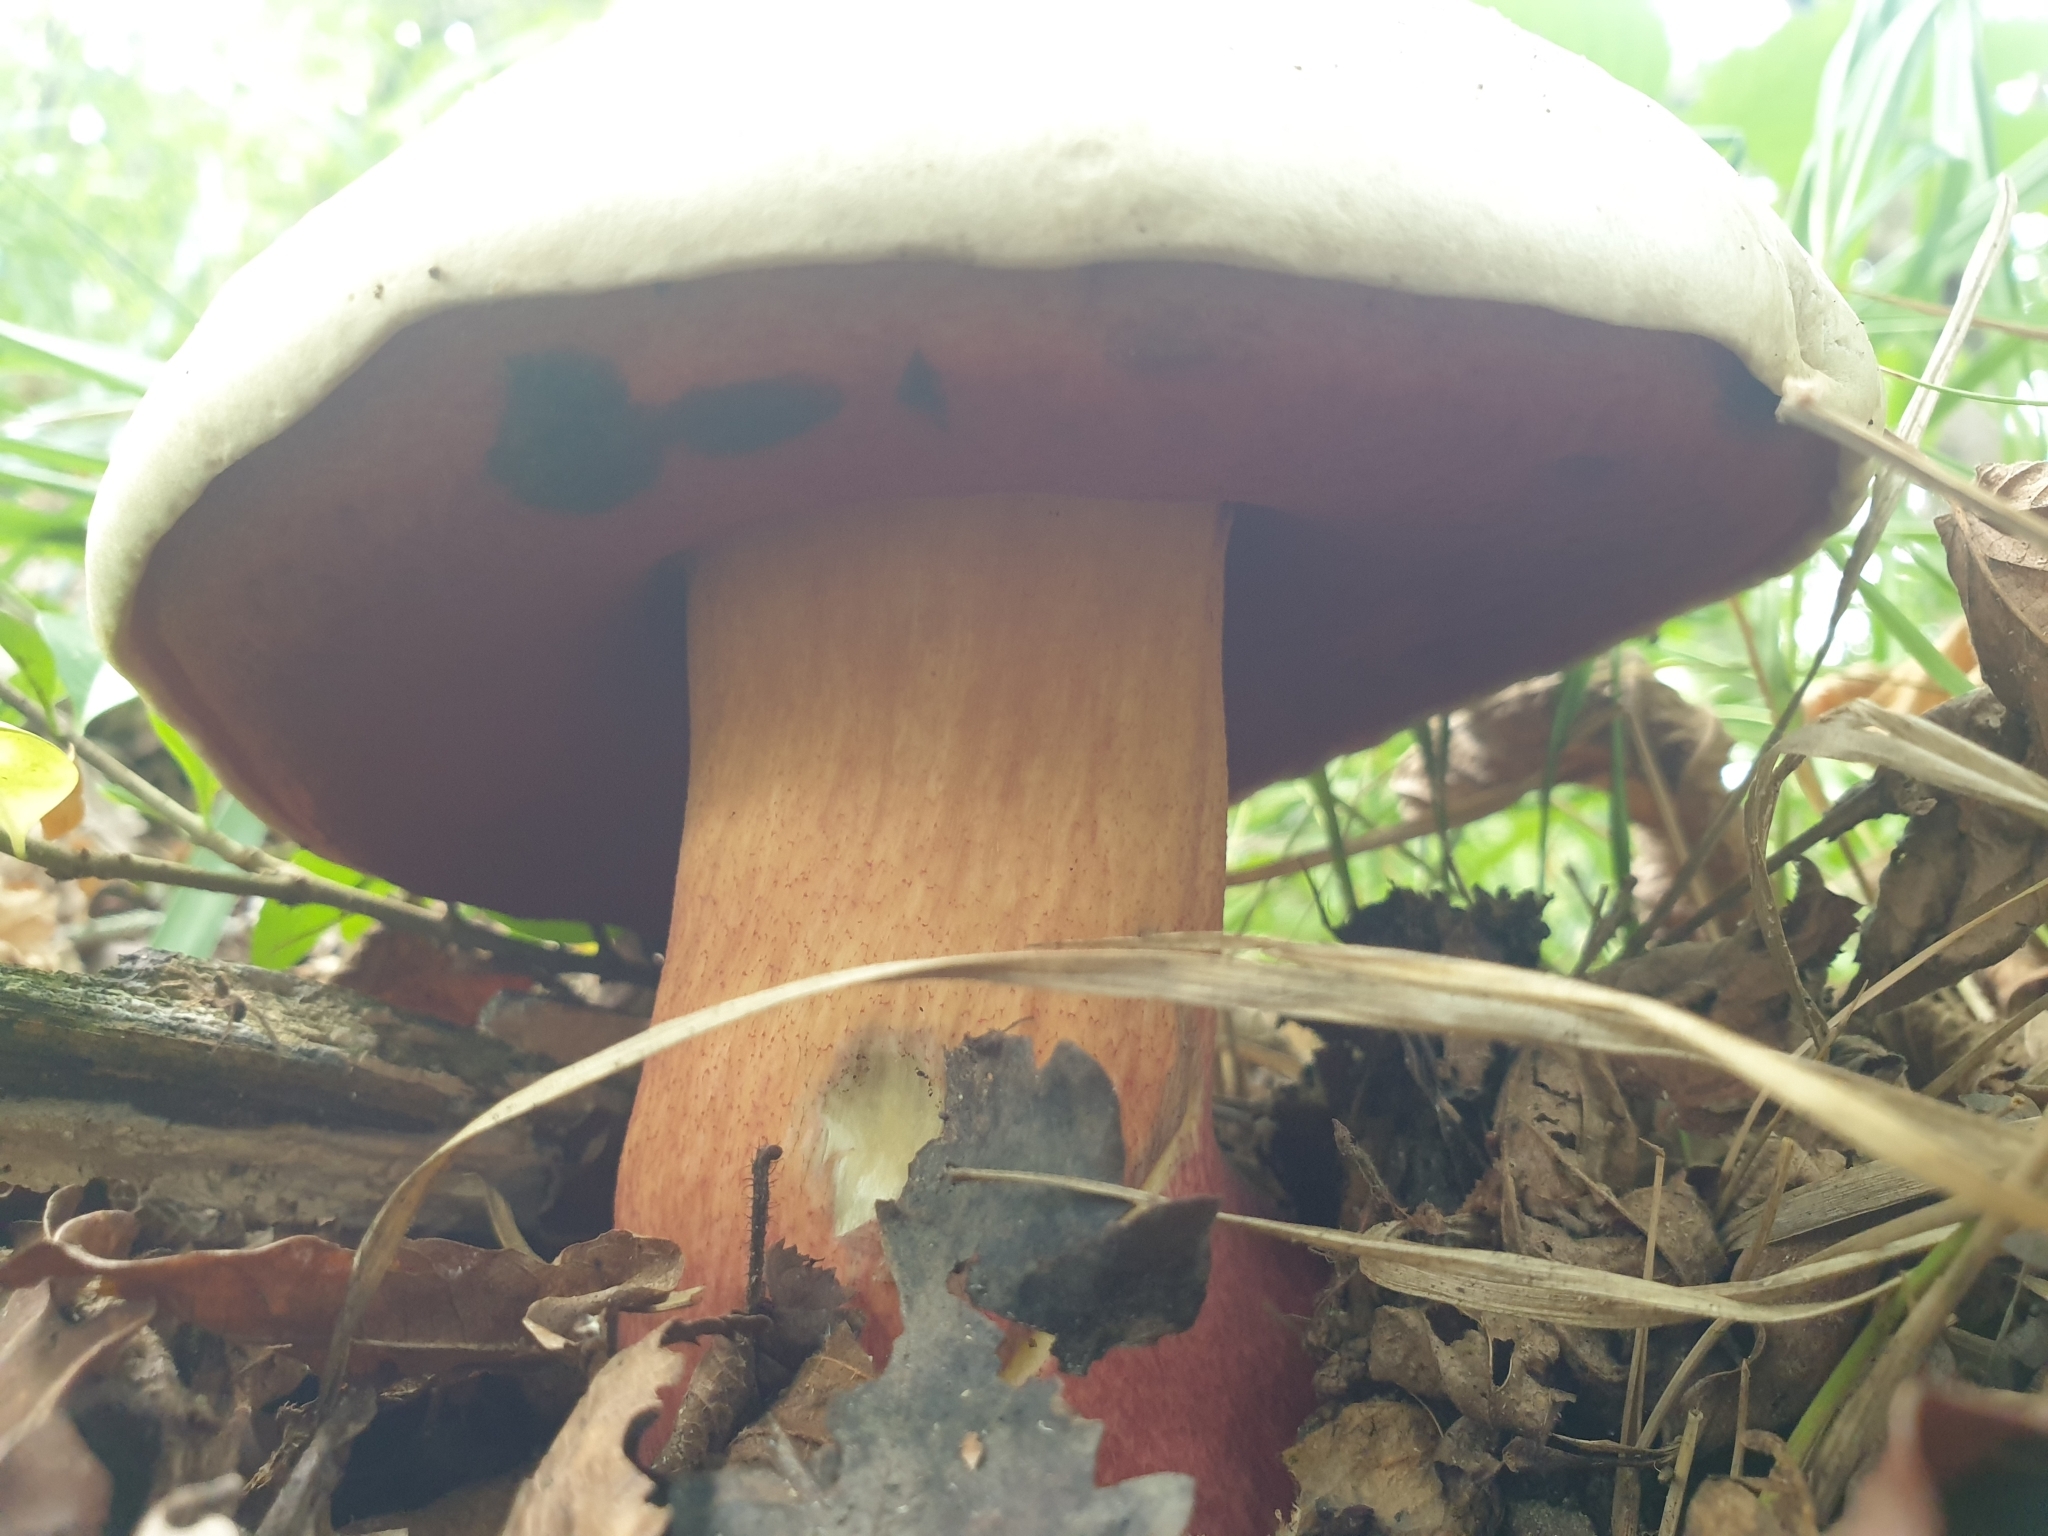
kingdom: Fungi
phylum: Basidiomycota
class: Agaricomycetes
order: Boletales
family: Boletaceae
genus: Rubroboletus
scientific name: Rubroboletus satanas
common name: Devil's bolete
